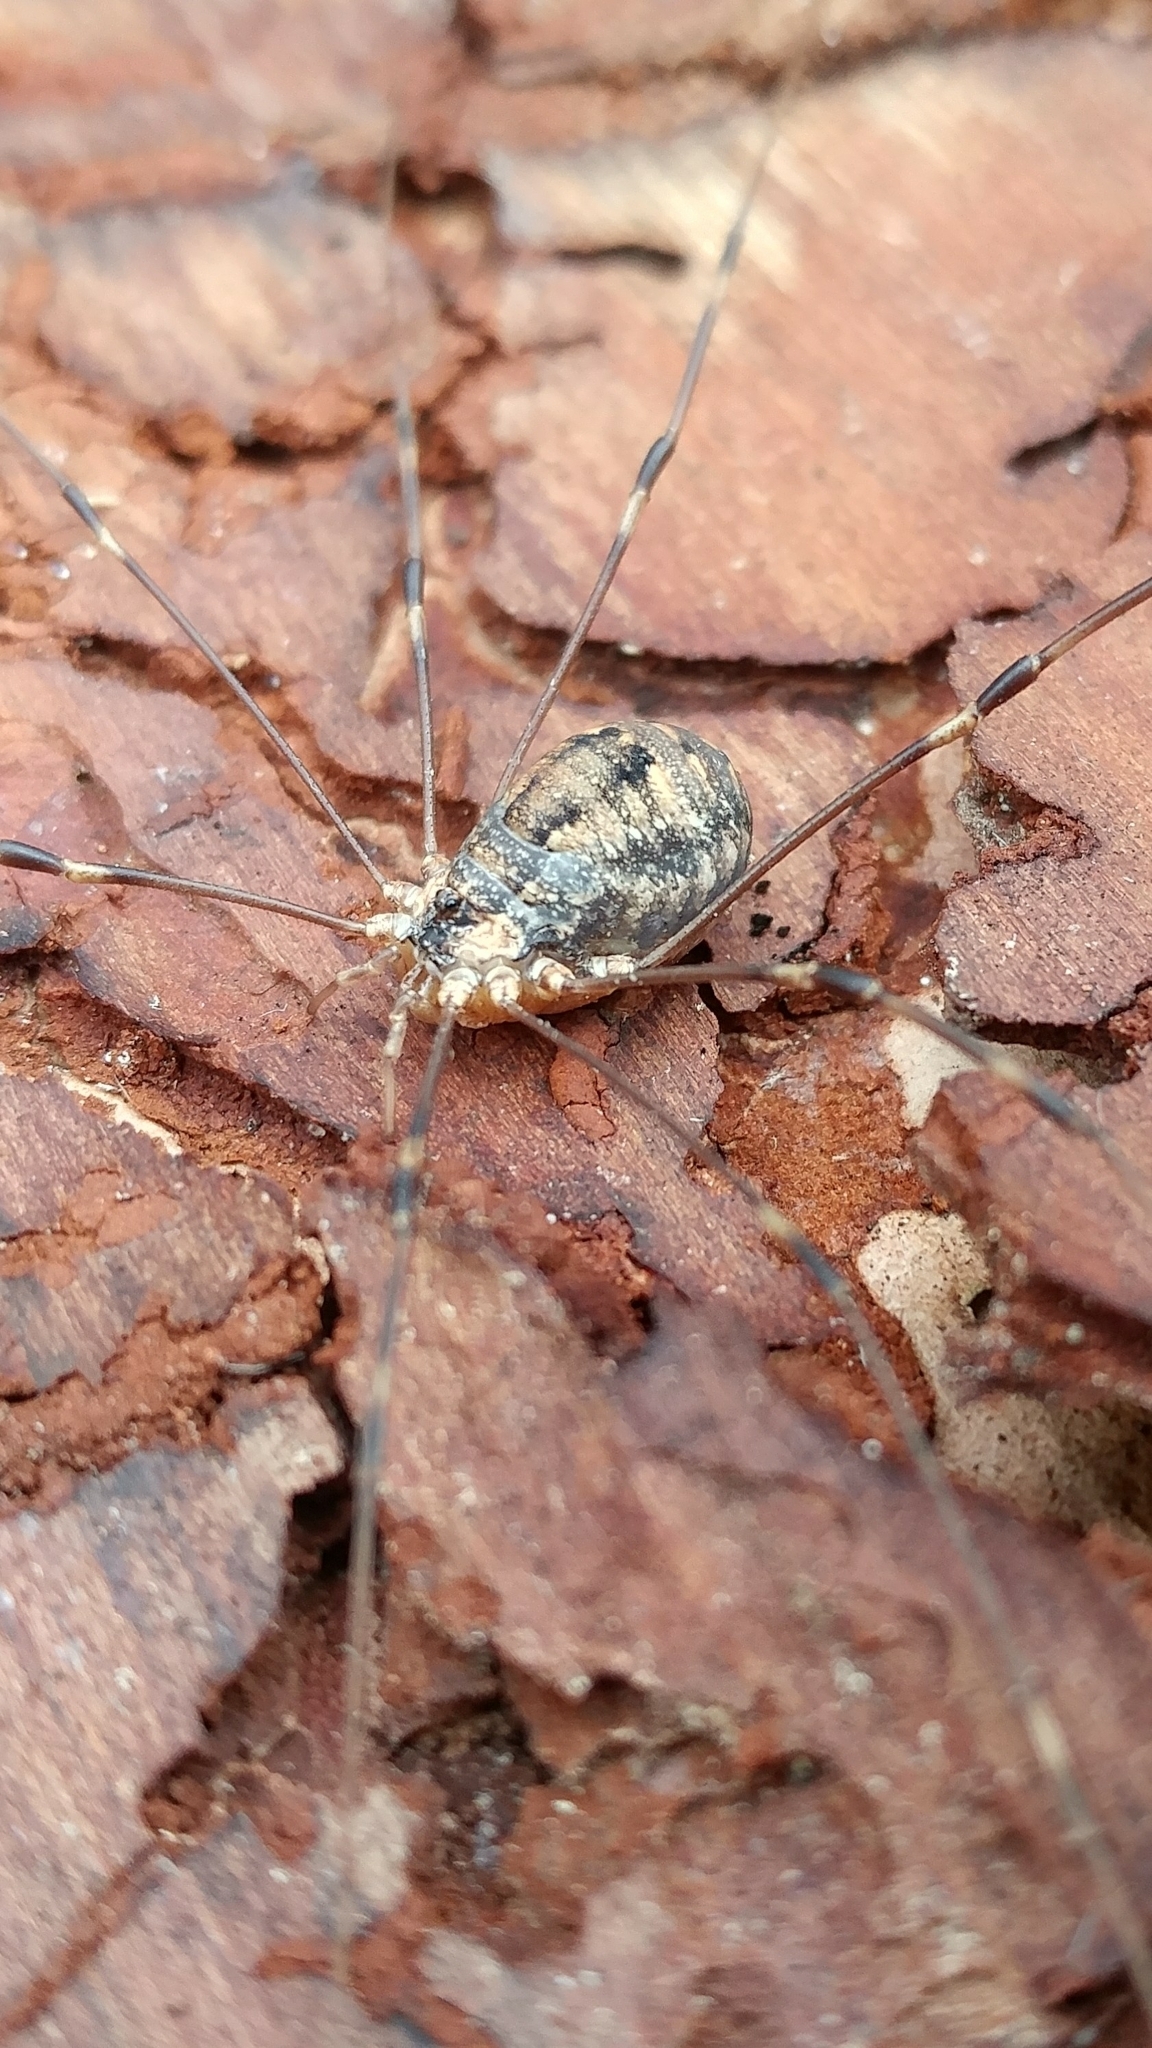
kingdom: Animalia
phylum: Arthropoda
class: Arachnida
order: Opiliones
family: Sclerosomatidae
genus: Leiobunum
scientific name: Leiobunum townsendi
